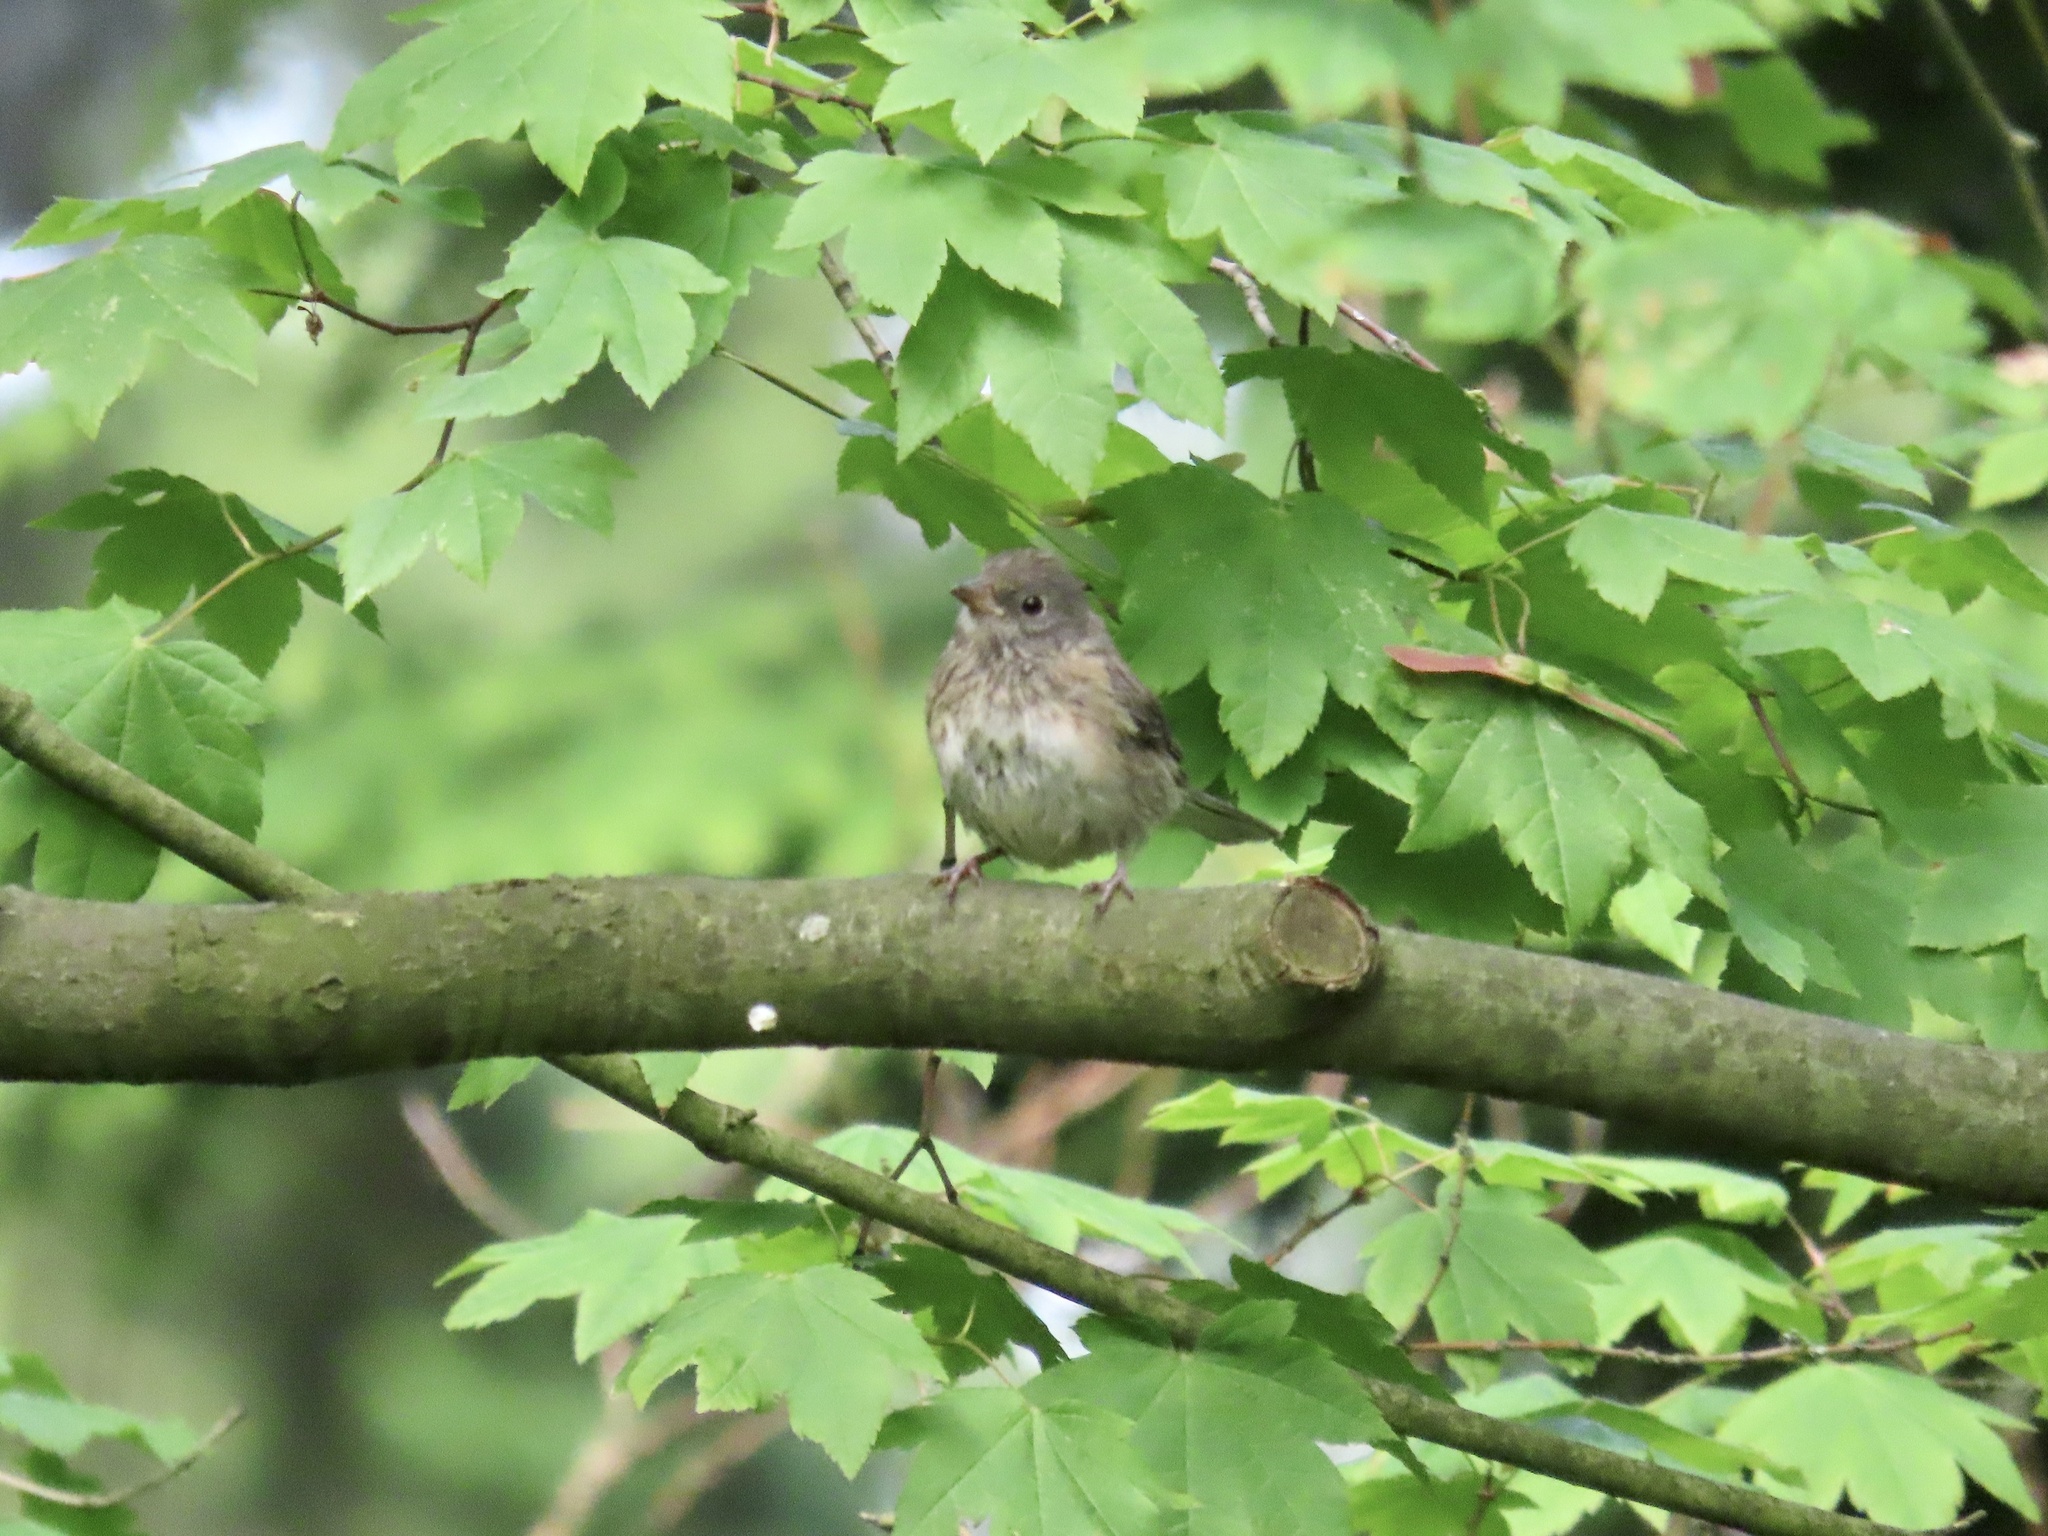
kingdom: Animalia
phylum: Chordata
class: Aves
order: Passeriformes
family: Passerellidae
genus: Junco
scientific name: Junco hyemalis
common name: Dark-eyed junco
